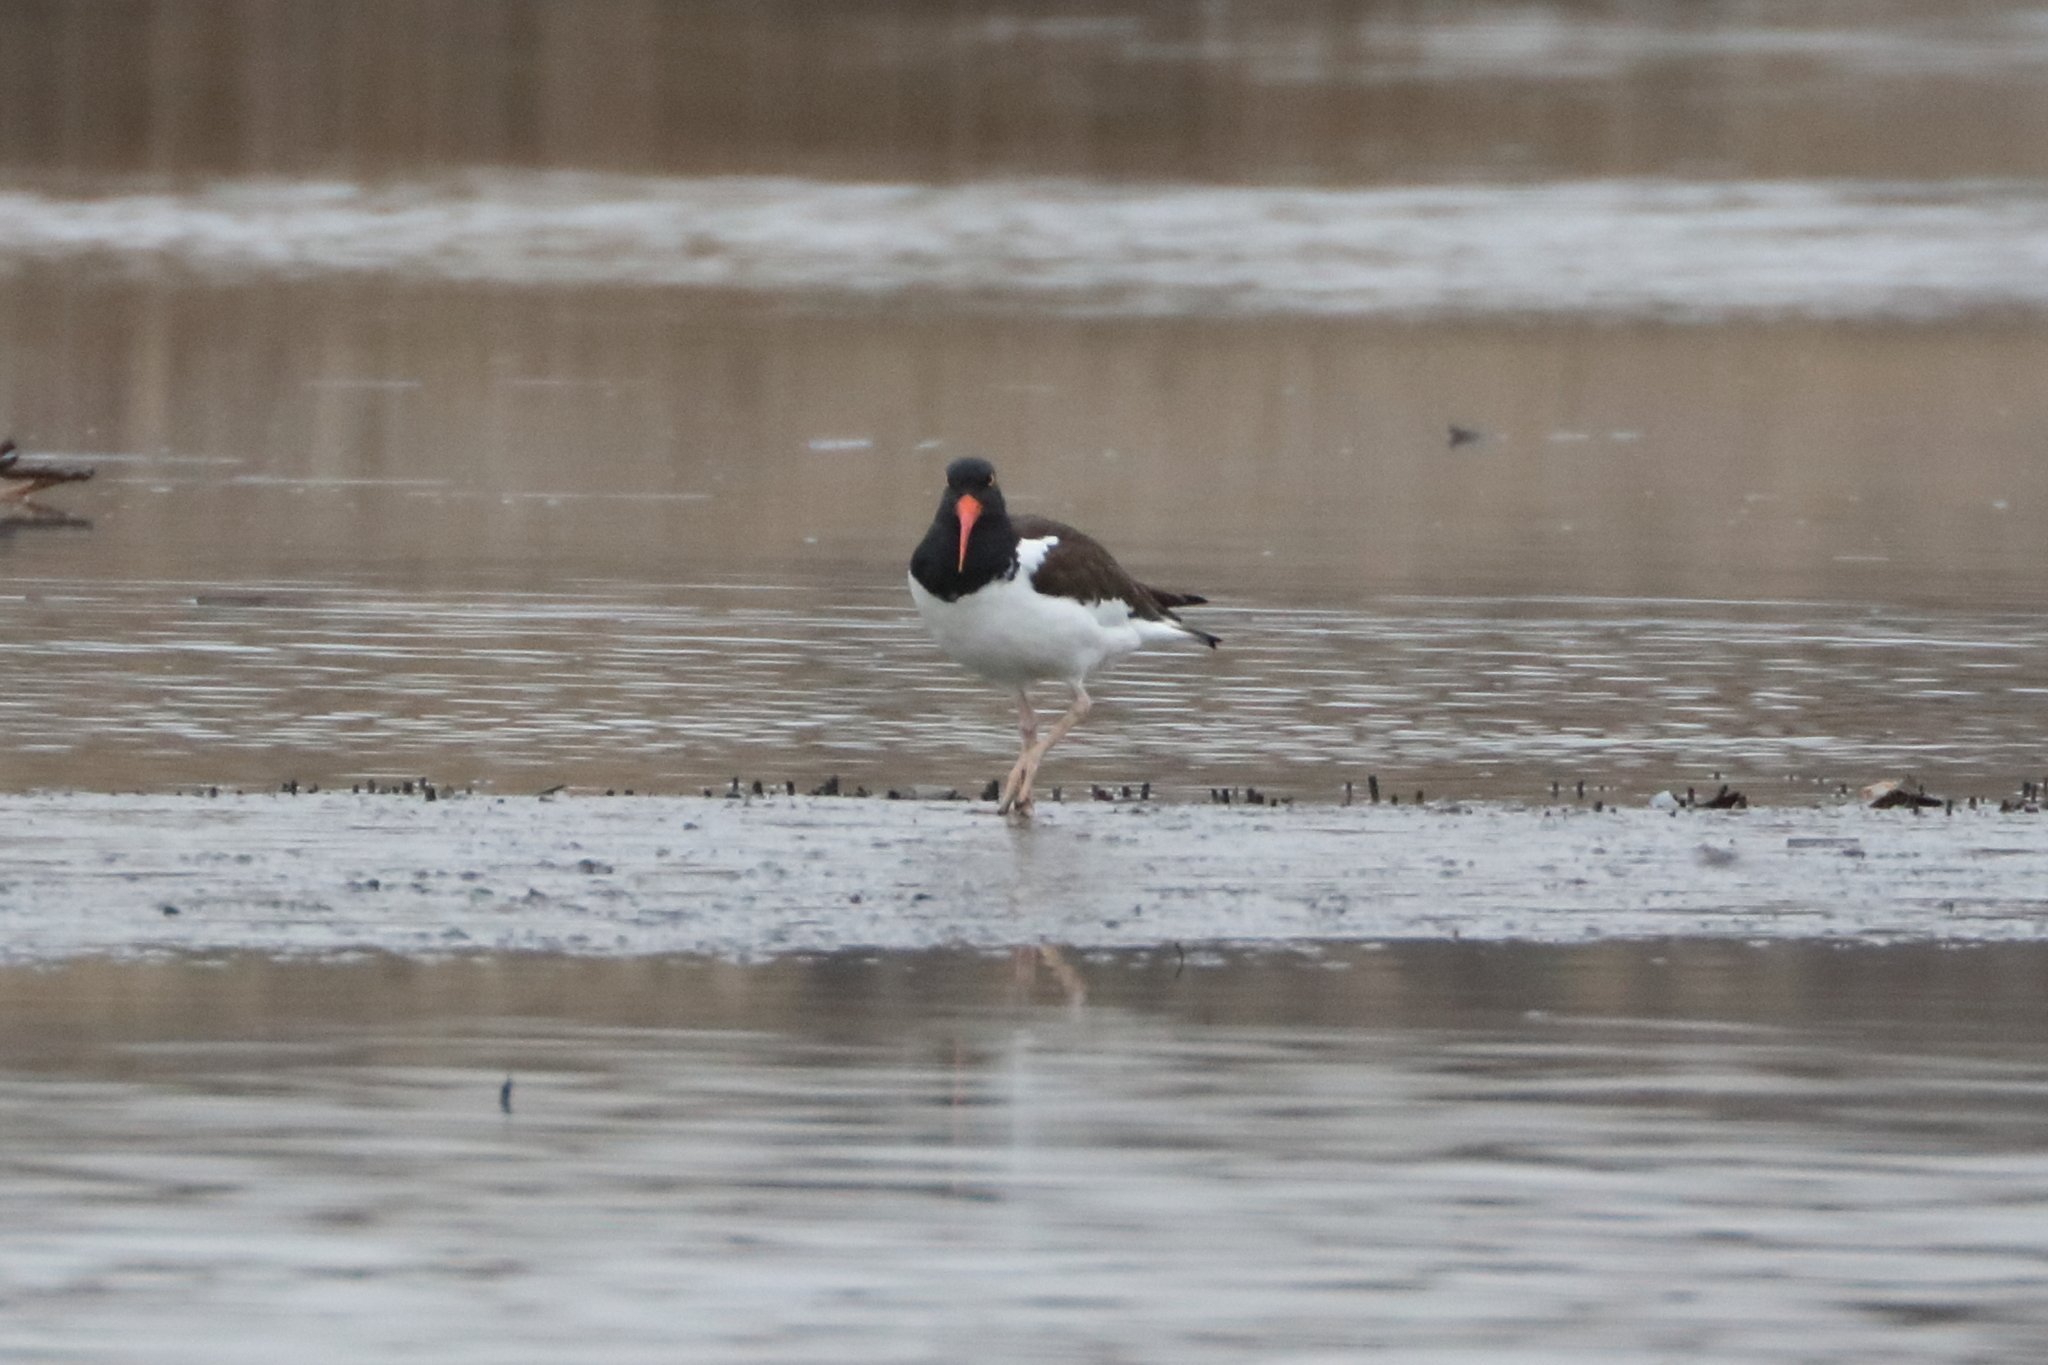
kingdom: Animalia
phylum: Chordata
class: Aves
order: Charadriiformes
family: Haematopodidae
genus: Haematopus
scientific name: Haematopus palliatus
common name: American oystercatcher
